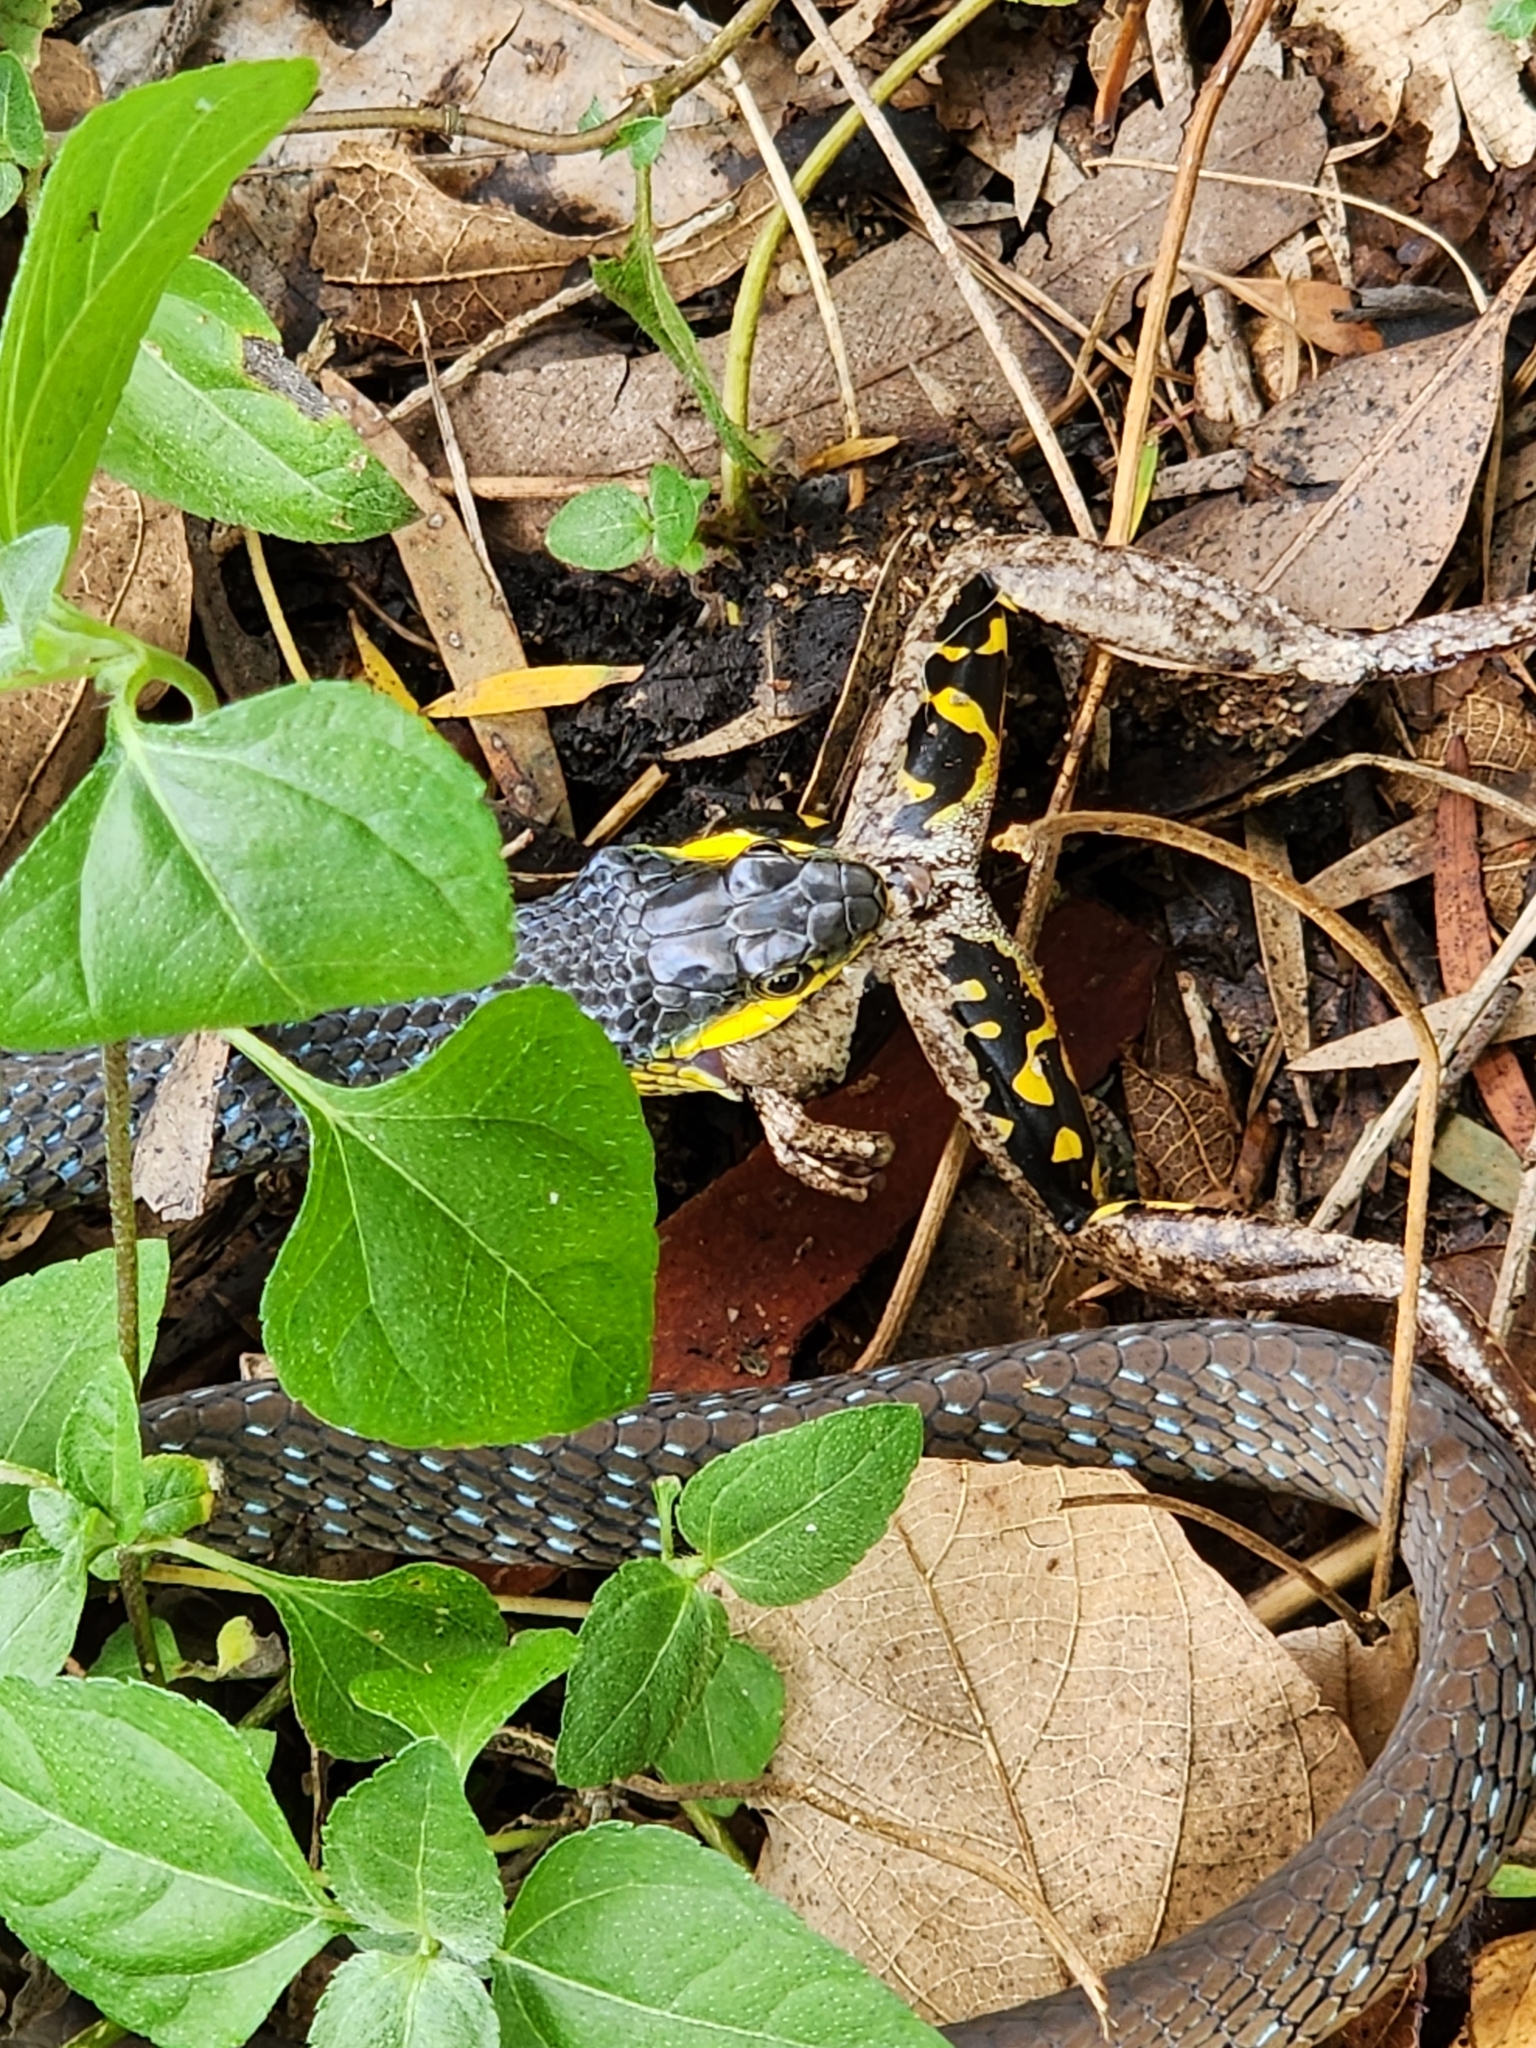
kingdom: Animalia
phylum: Chordata
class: Squamata
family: Colubridae
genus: Dendrelaphis
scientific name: Dendrelaphis punctulatus
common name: Common tree snake
